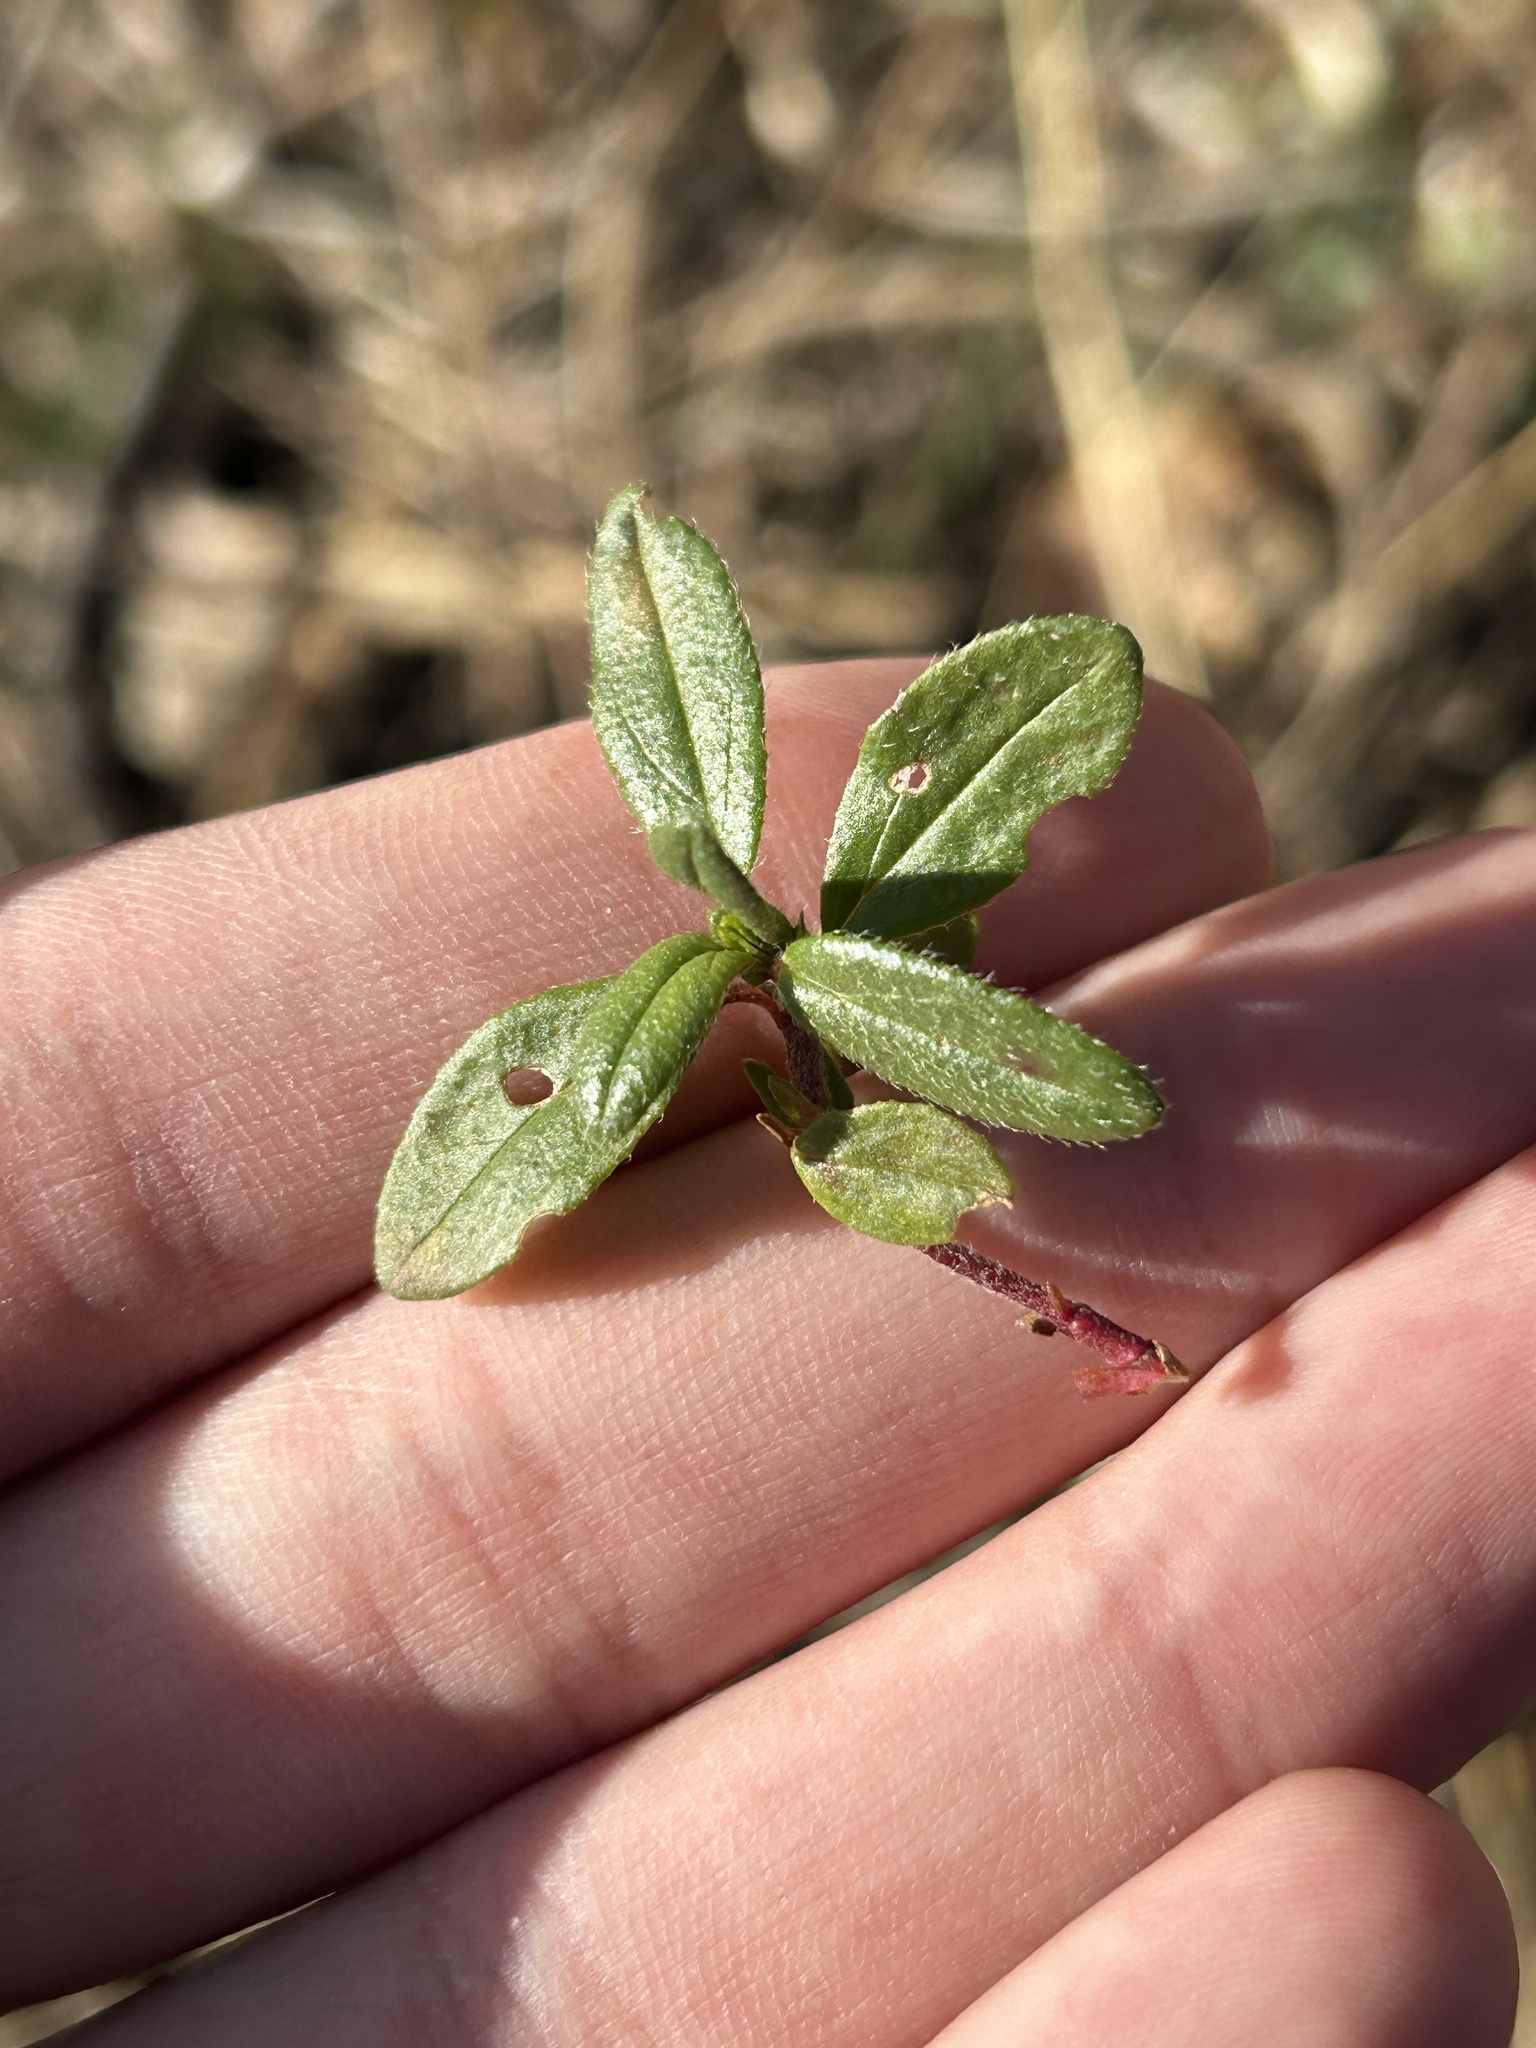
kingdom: Plantae
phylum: Tracheophyta
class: Magnoliopsida
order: Malvales
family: Cistaceae
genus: Helianthemum
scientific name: Helianthemum nummularium
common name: Common rock-rose
